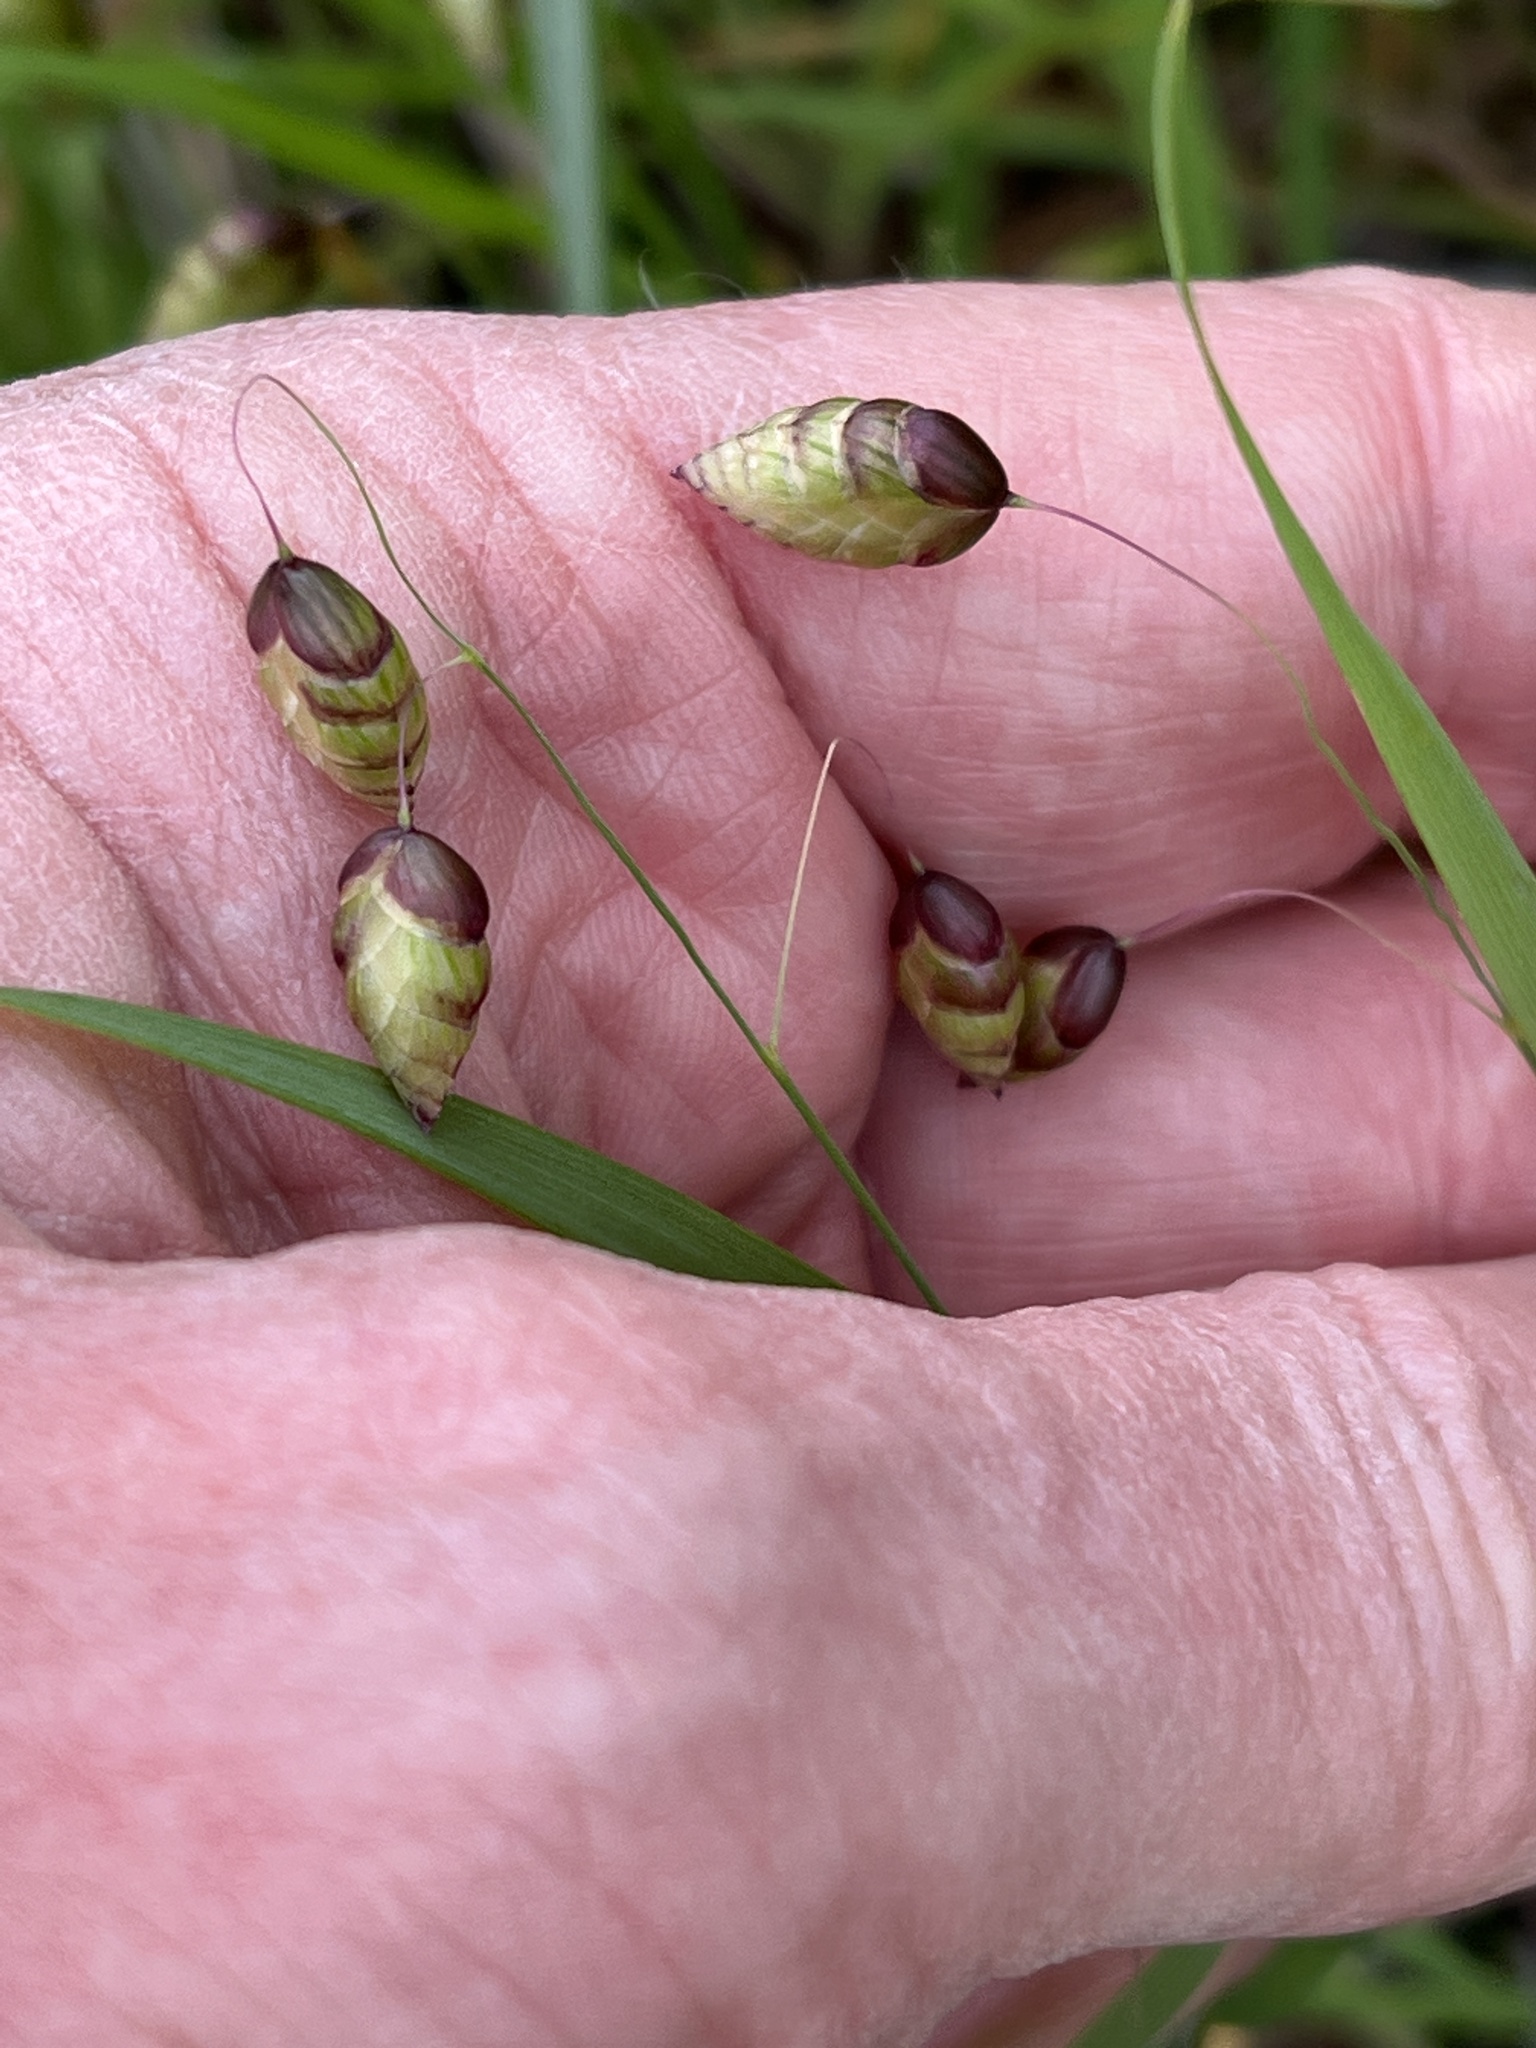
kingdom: Plantae
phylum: Tracheophyta
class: Liliopsida
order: Poales
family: Poaceae
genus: Briza
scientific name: Briza maxima
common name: Big quakinggrass
